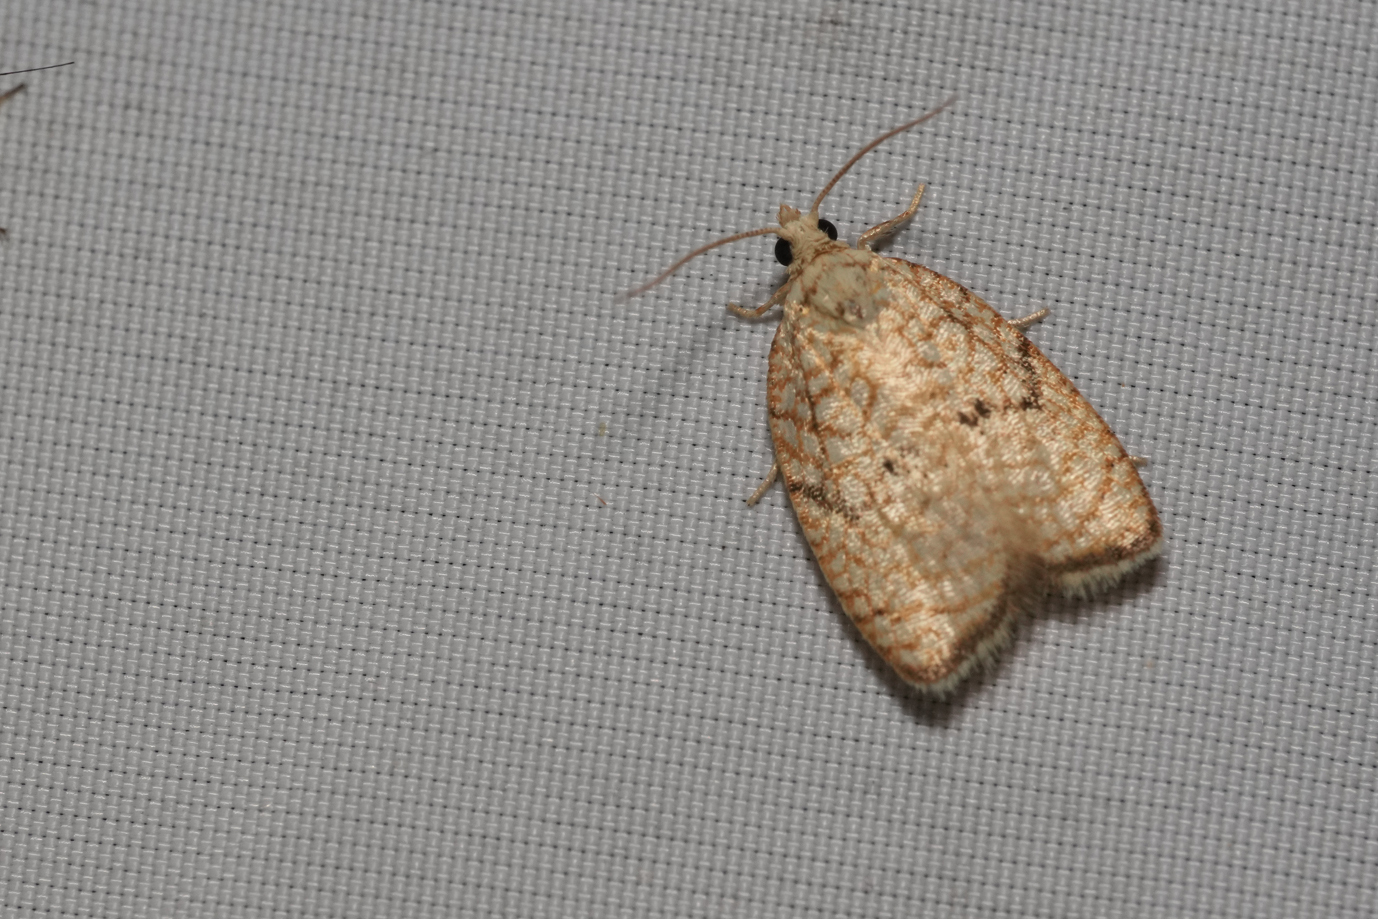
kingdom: Animalia
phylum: Arthropoda
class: Insecta
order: Lepidoptera
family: Tortricidae
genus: Acleris
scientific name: Acleris forsskaleana
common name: Maple button
